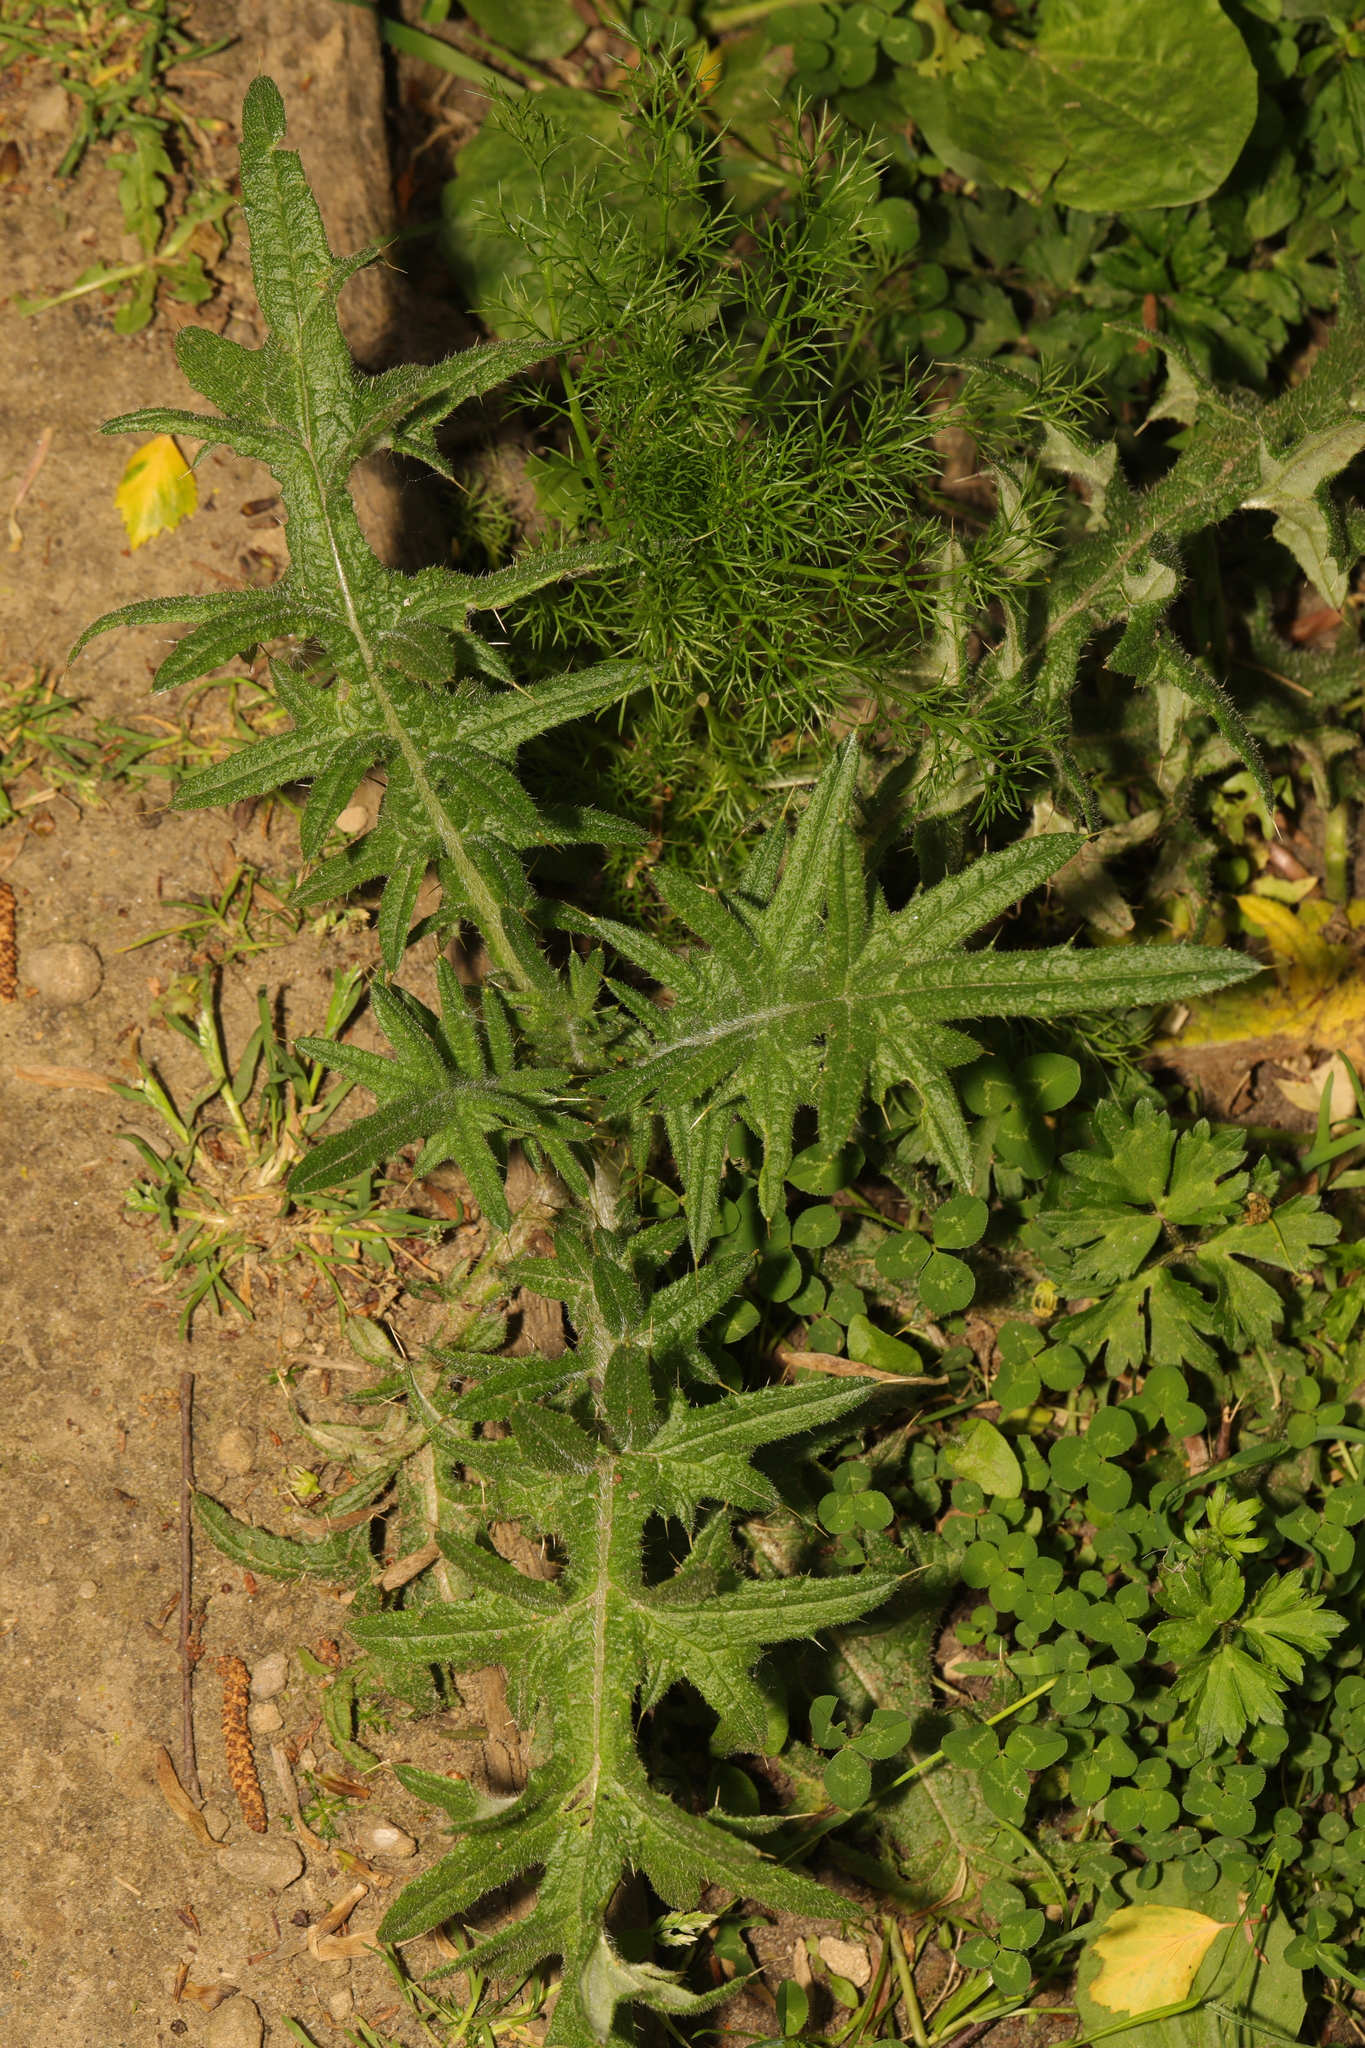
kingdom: Plantae
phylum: Tracheophyta
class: Magnoliopsida
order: Asterales
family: Asteraceae
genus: Cirsium
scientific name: Cirsium vulgare
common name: Bull thistle
